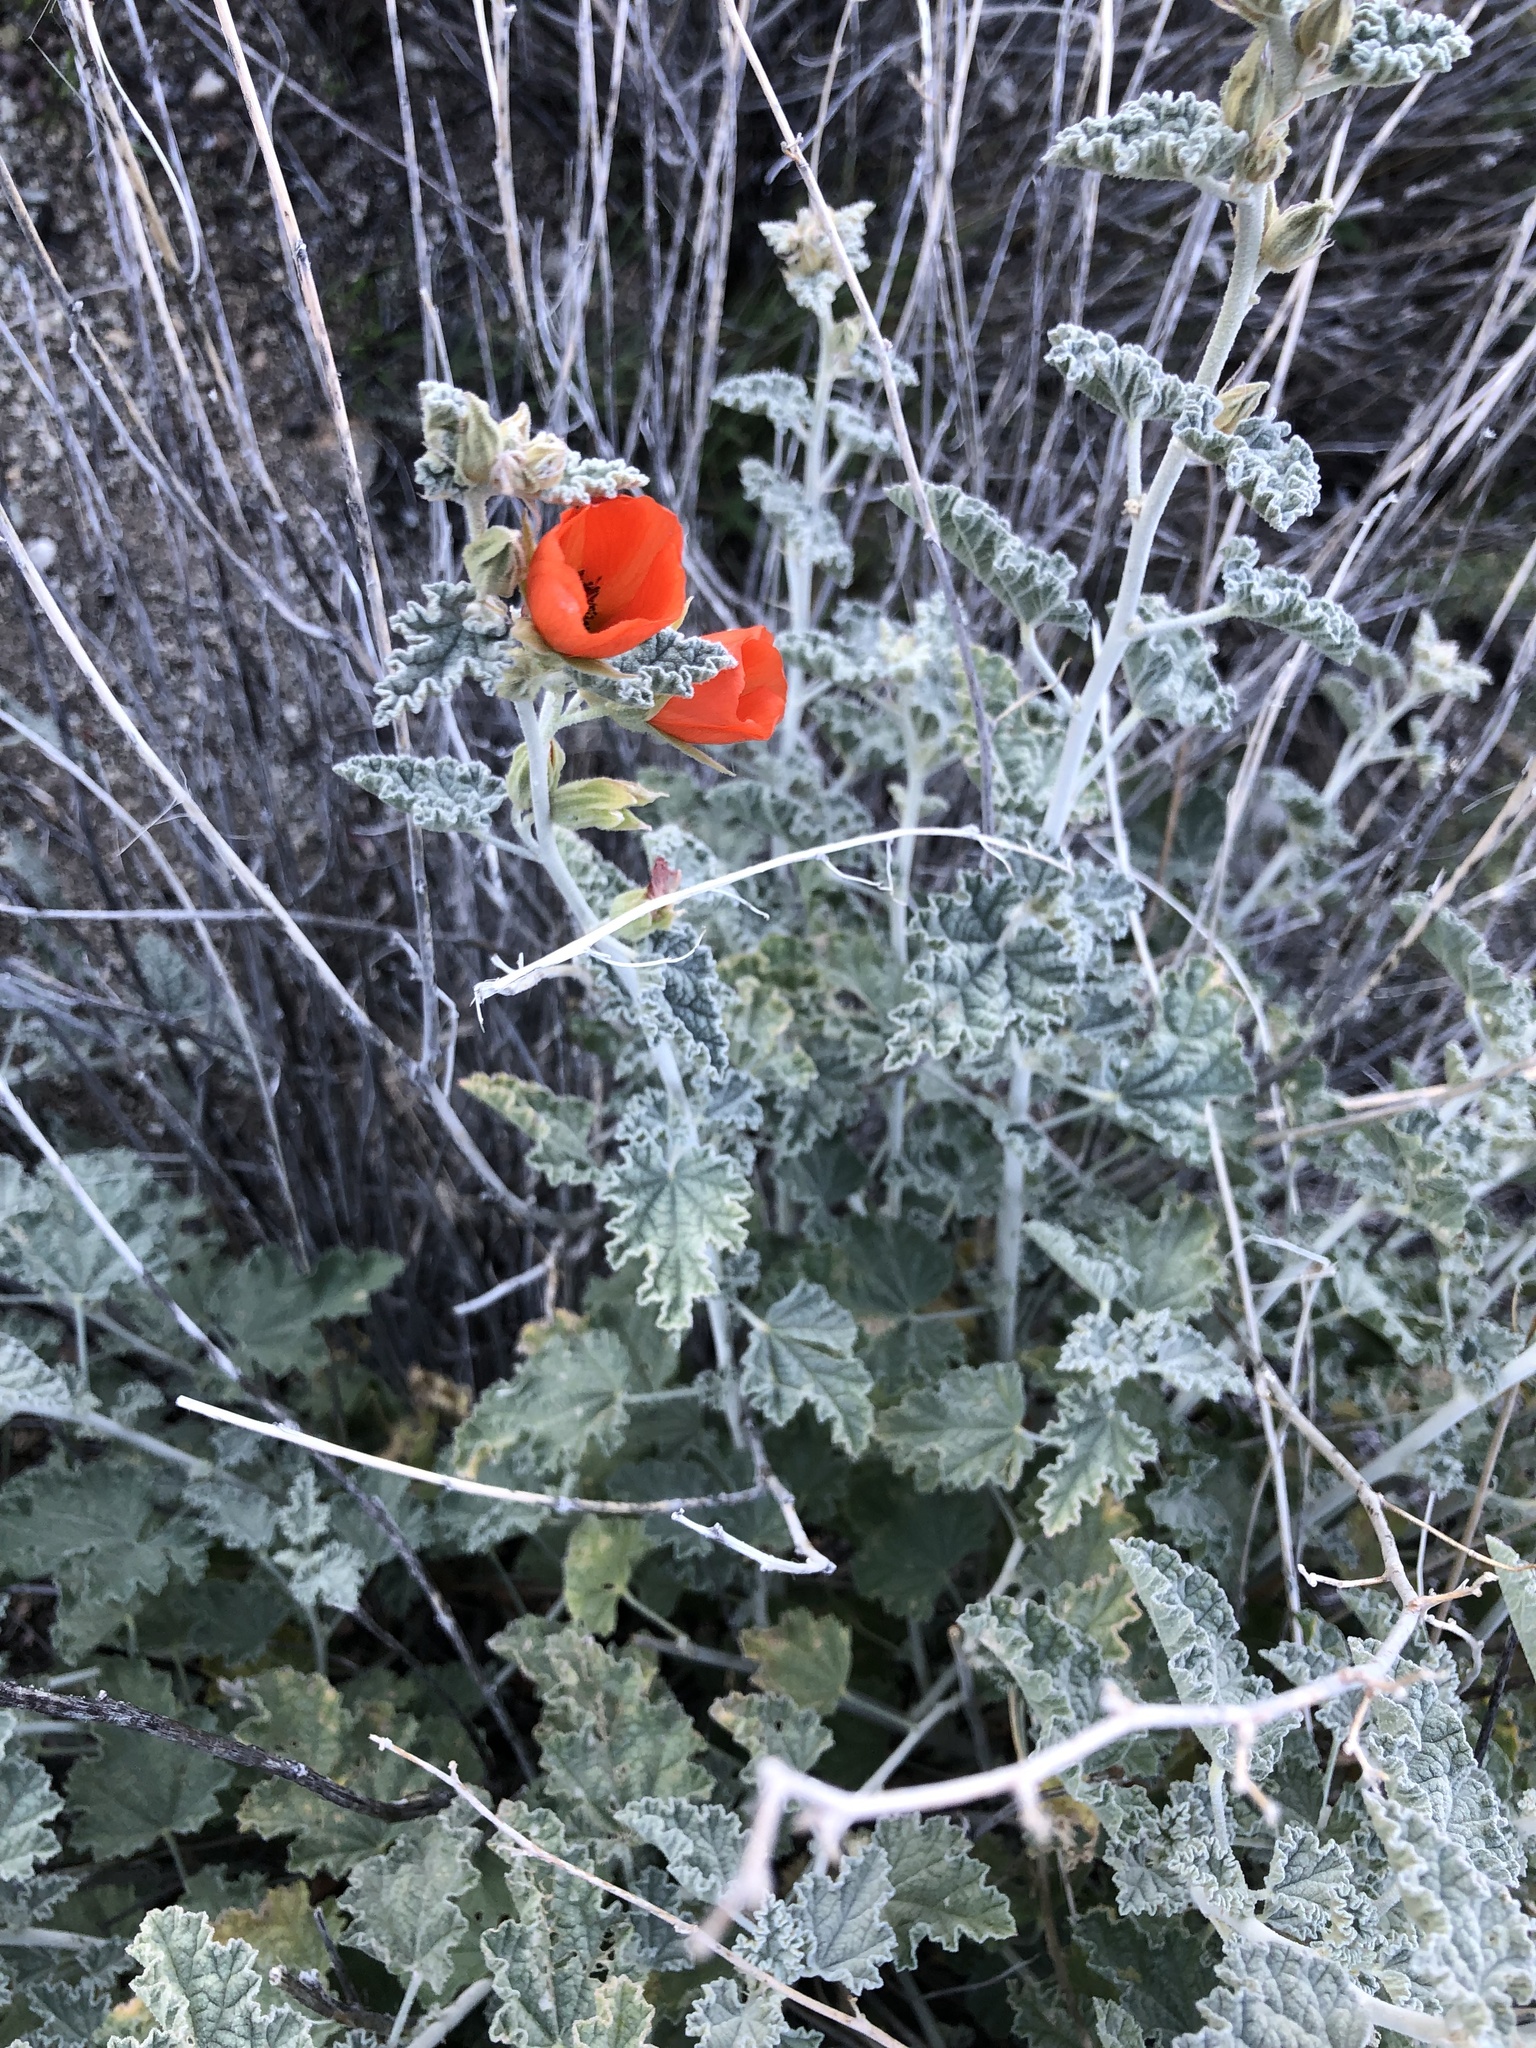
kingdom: Plantae
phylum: Tracheophyta
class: Magnoliopsida
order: Malvales
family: Malvaceae
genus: Sphaeralcea
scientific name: Sphaeralcea ambigua
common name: Apricot globe-mallow
